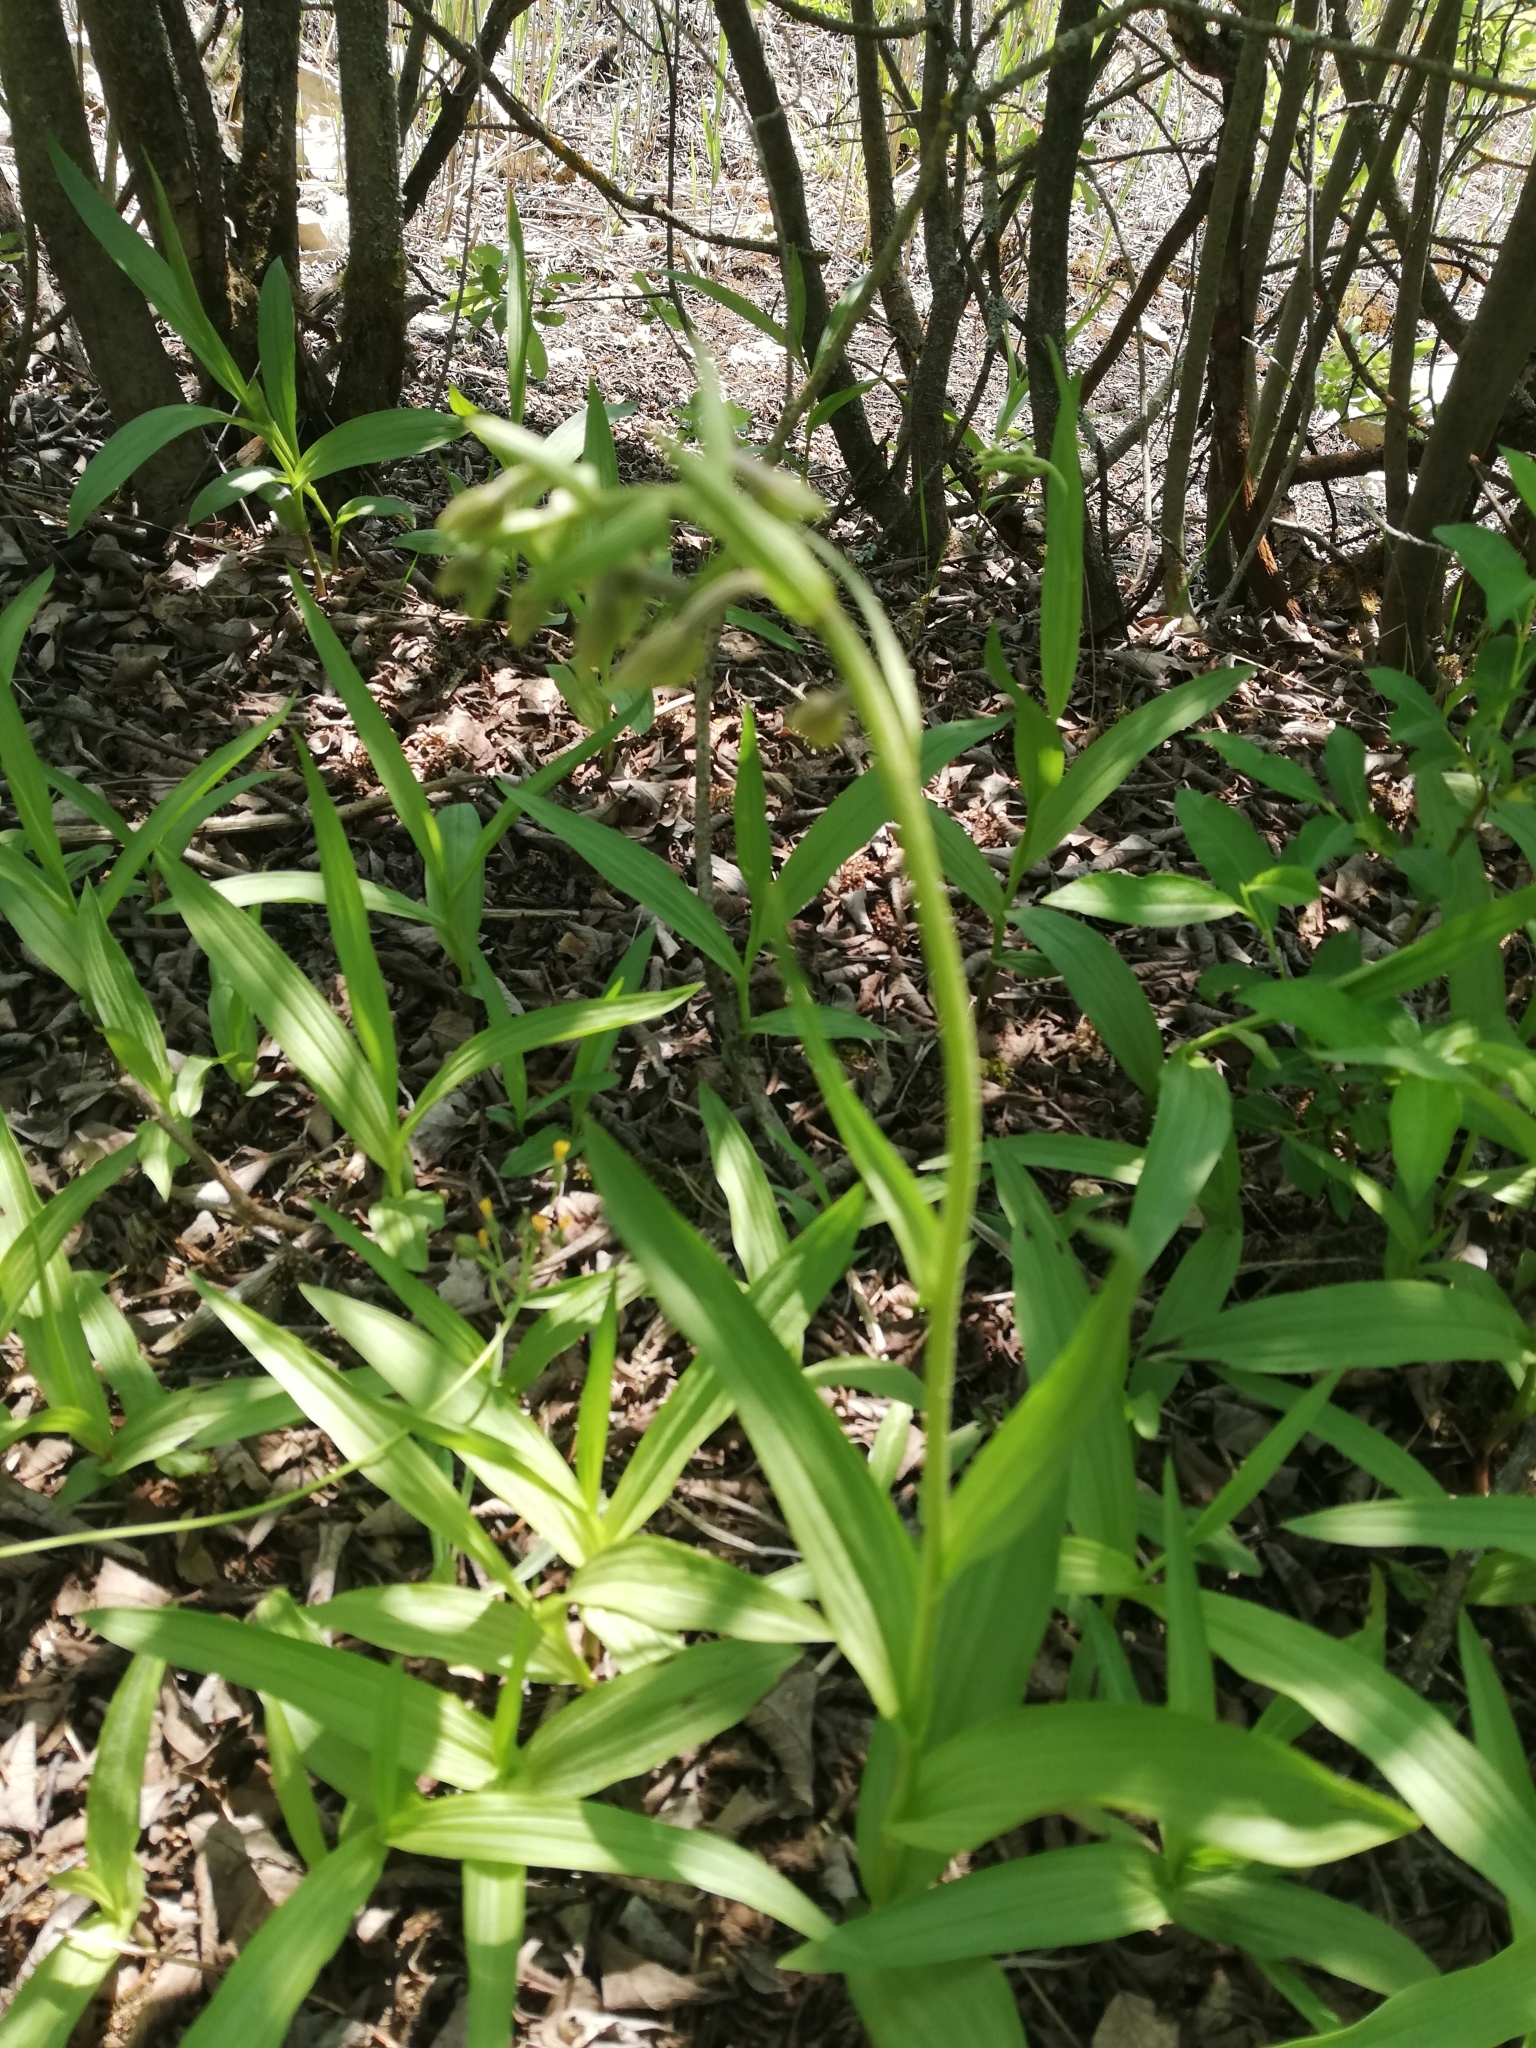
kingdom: Plantae
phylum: Tracheophyta
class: Liliopsida
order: Asparagales
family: Orchidaceae
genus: Epipactis
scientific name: Epipactis palustris
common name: Marsh helleborine
